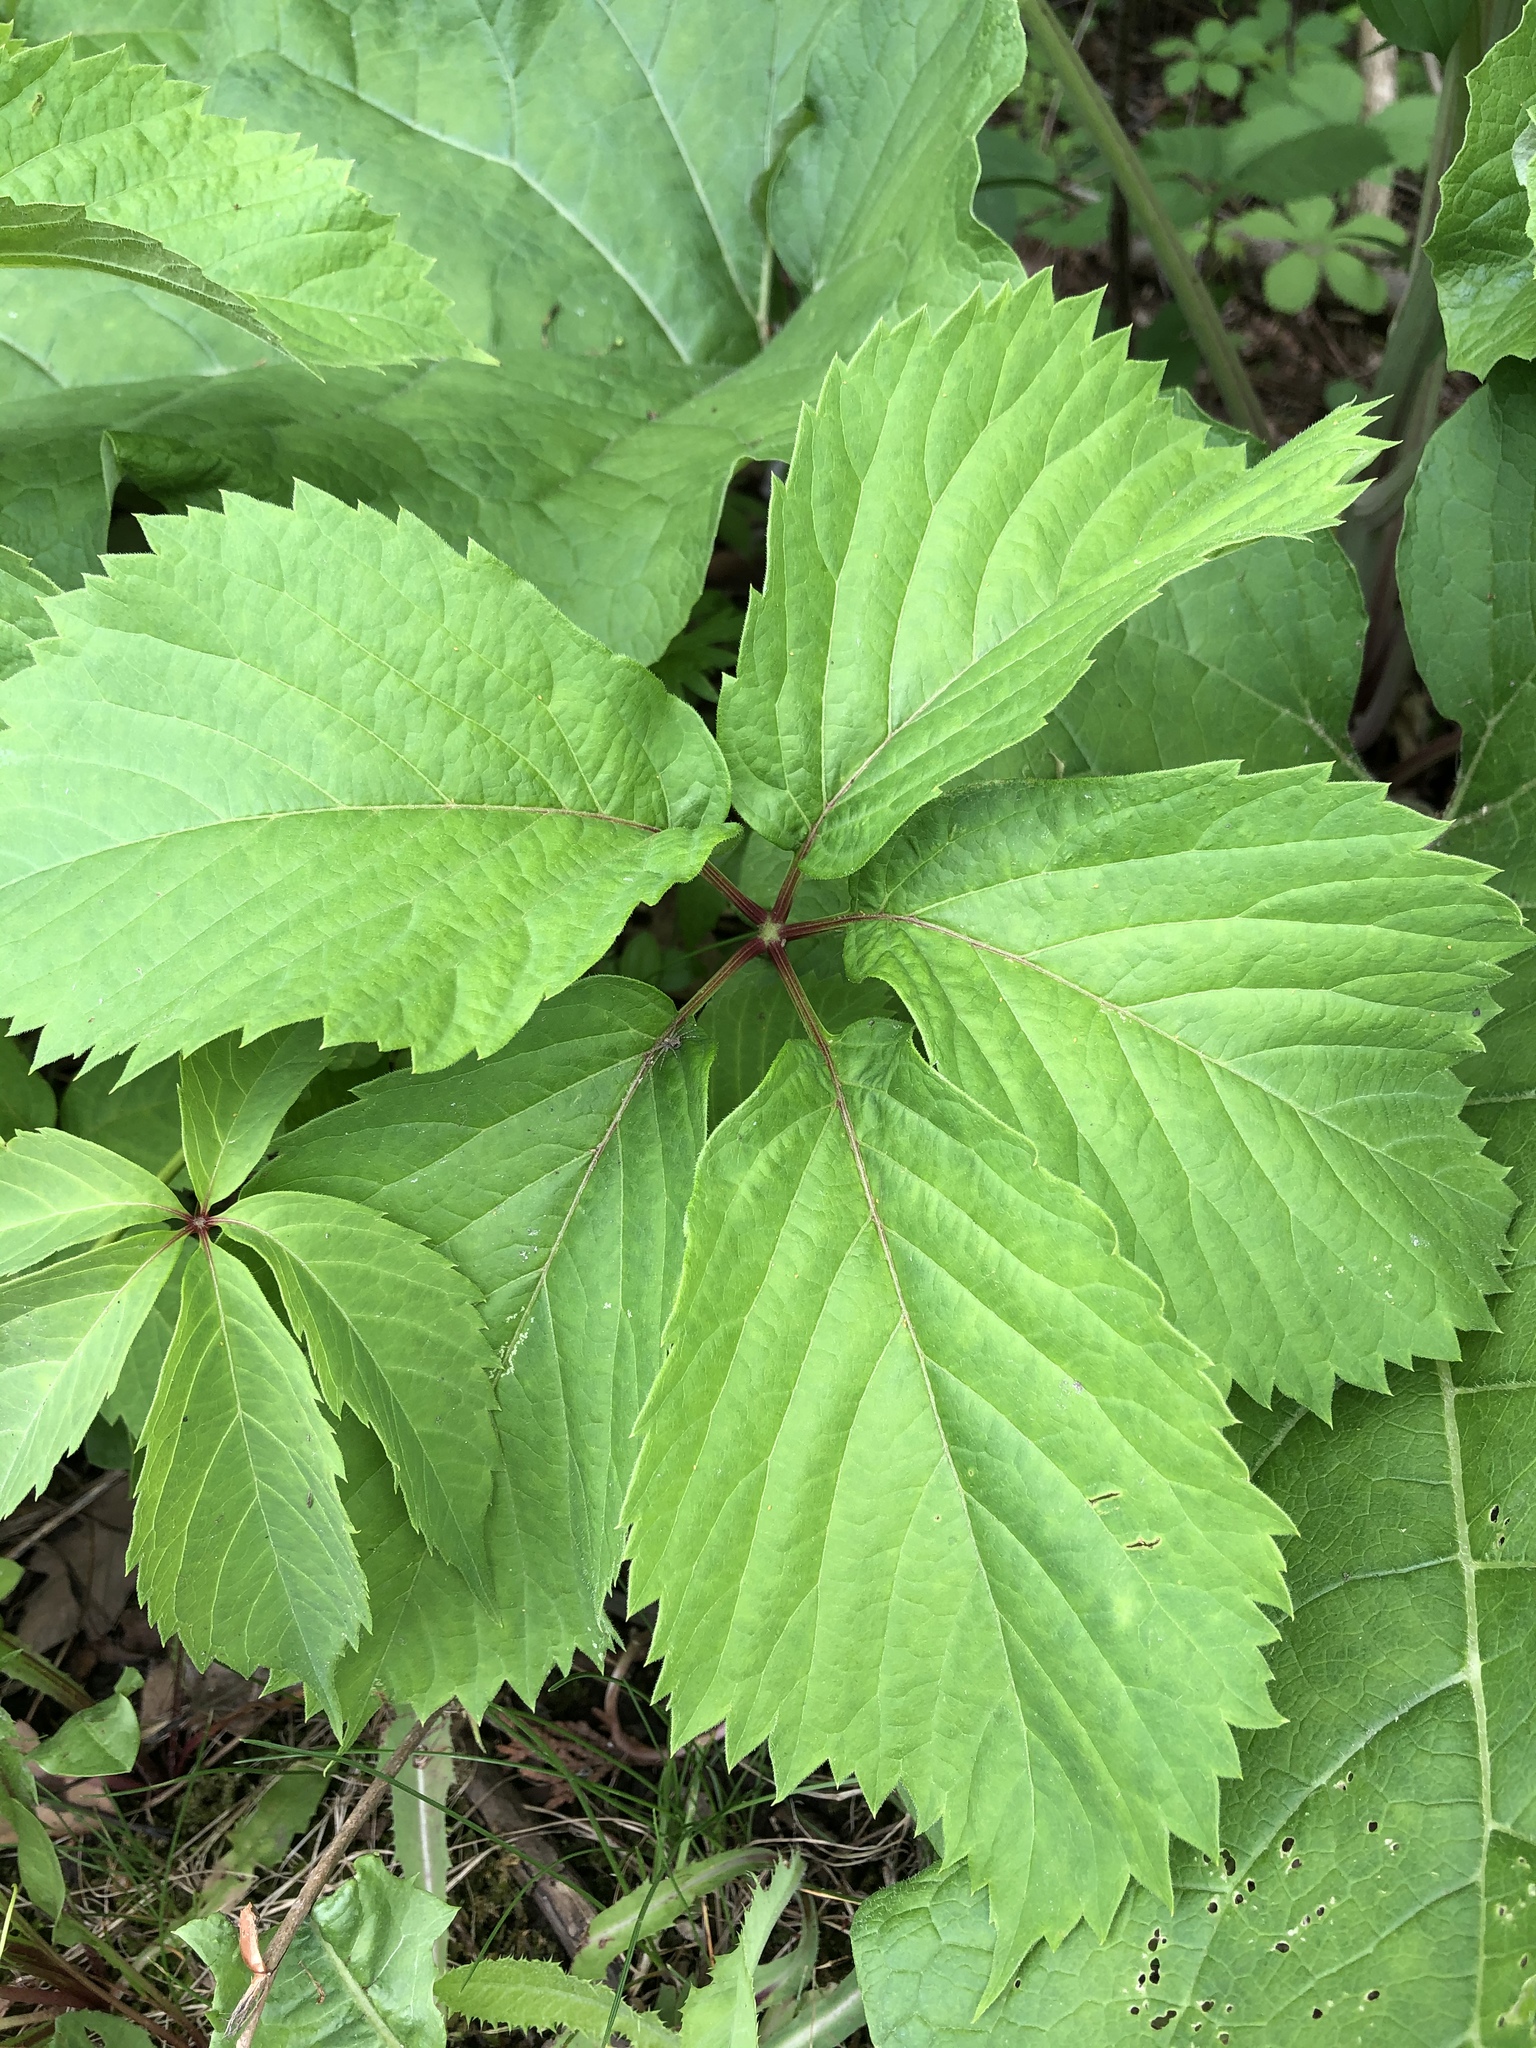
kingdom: Plantae
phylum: Tracheophyta
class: Magnoliopsida
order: Vitales
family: Vitaceae
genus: Parthenocissus
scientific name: Parthenocissus quinquefolia
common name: Virginia-creeper
